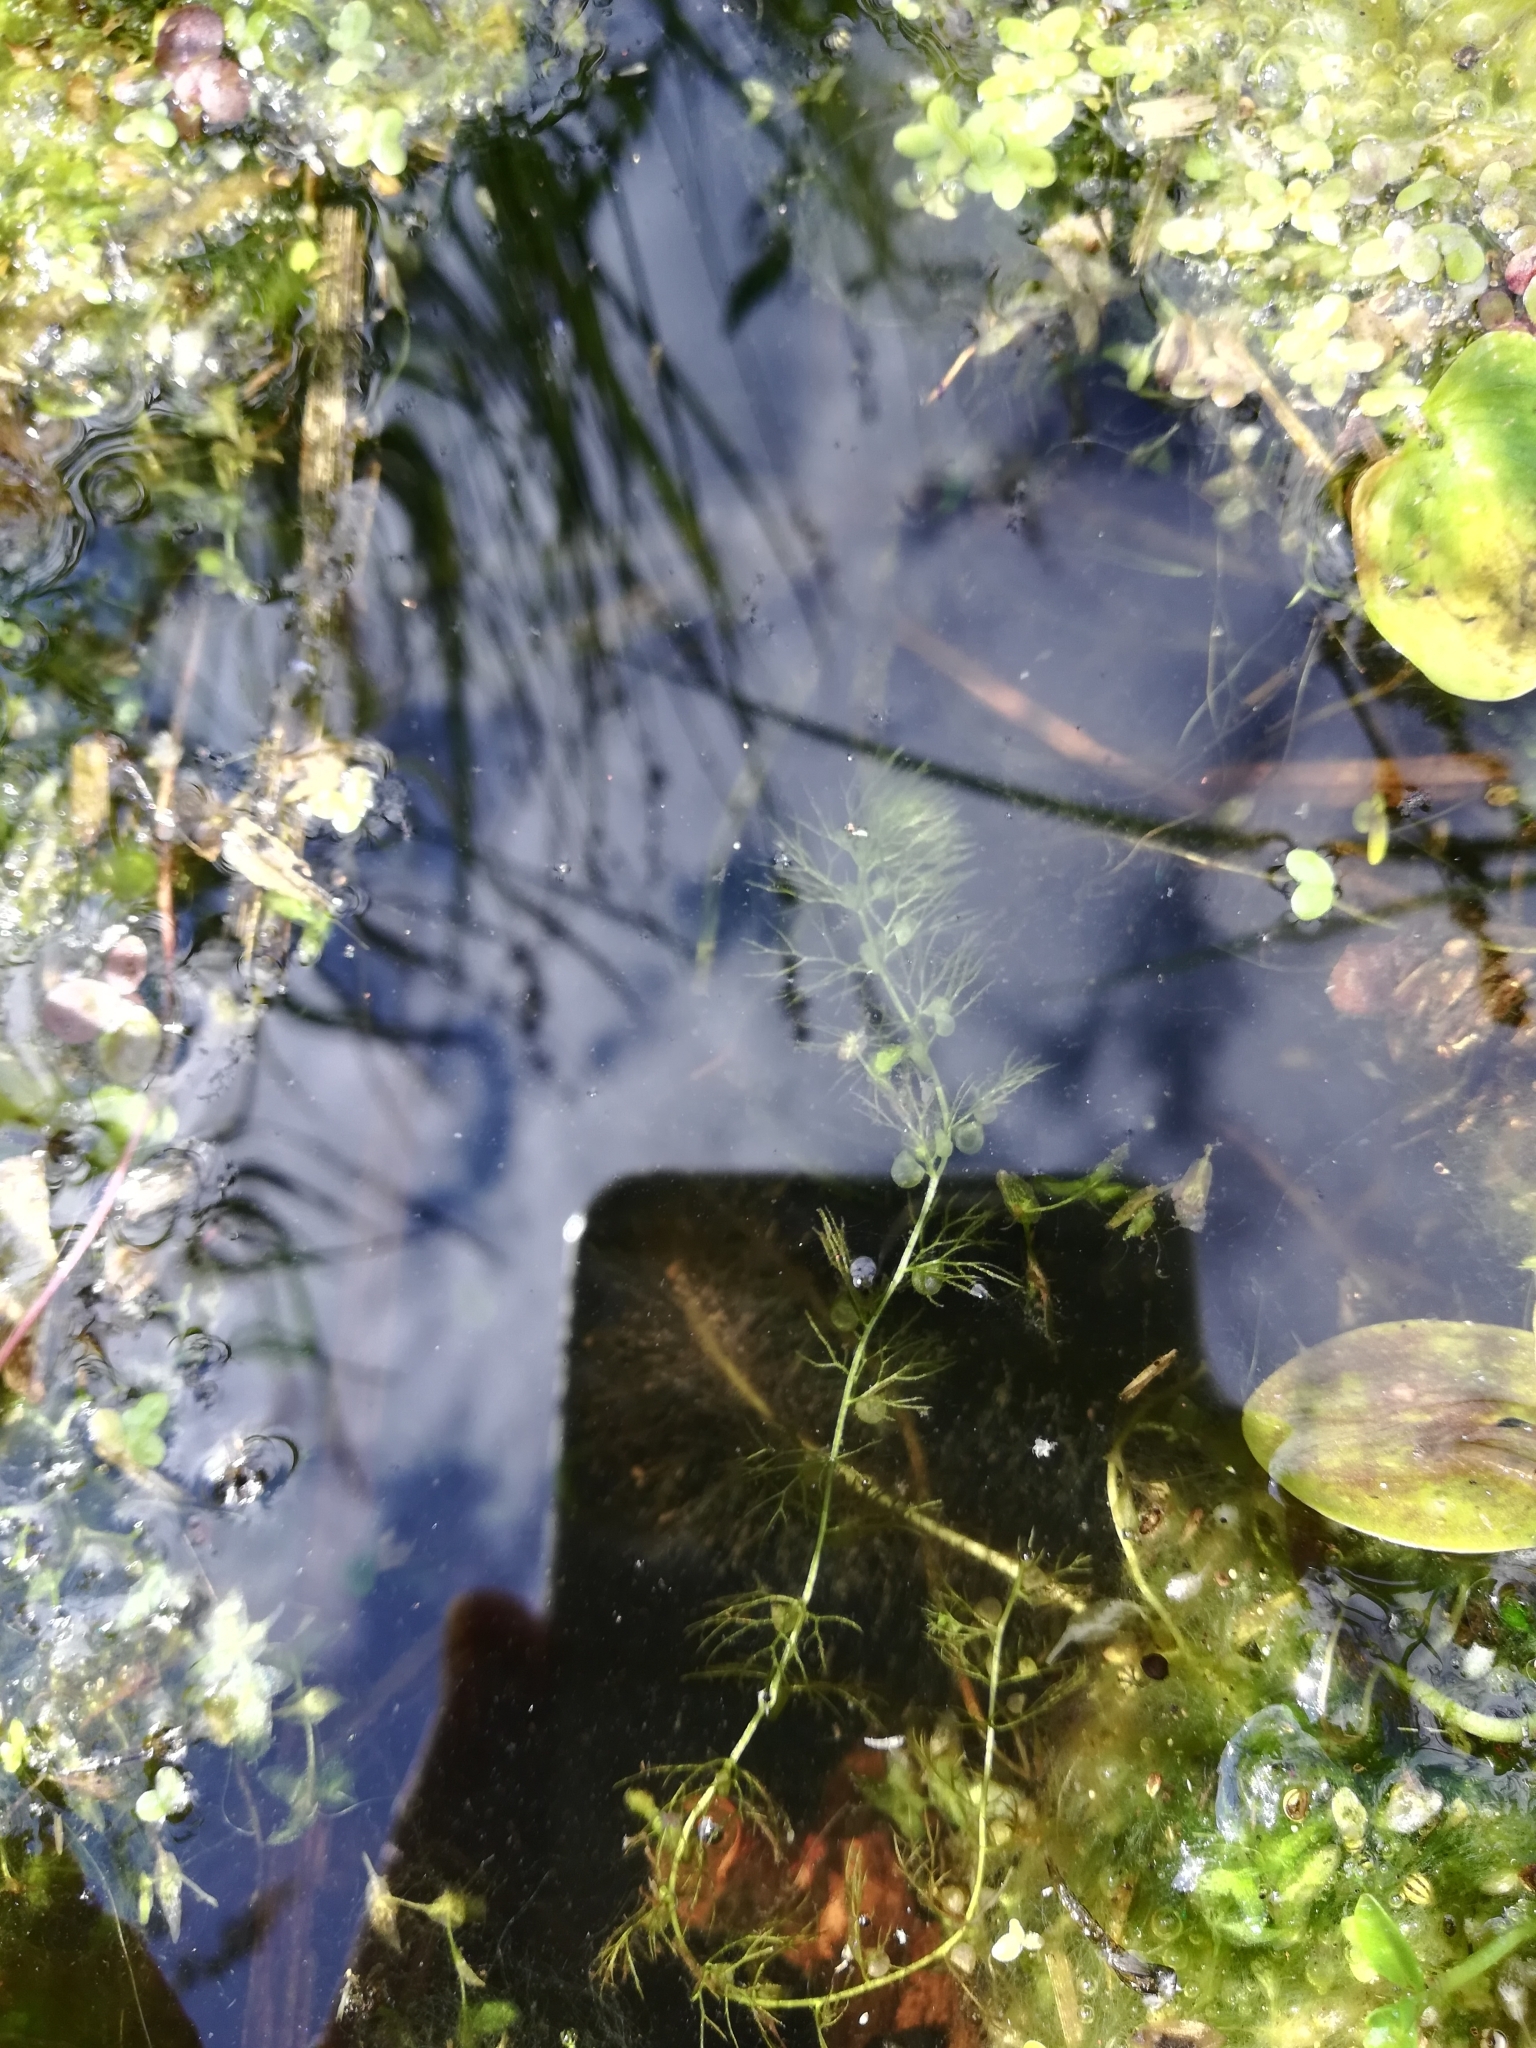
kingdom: Plantae
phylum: Tracheophyta
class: Magnoliopsida
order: Lamiales
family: Lentibulariaceae
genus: Utricularia
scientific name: Utricularia minor
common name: Lesser bladderwort
